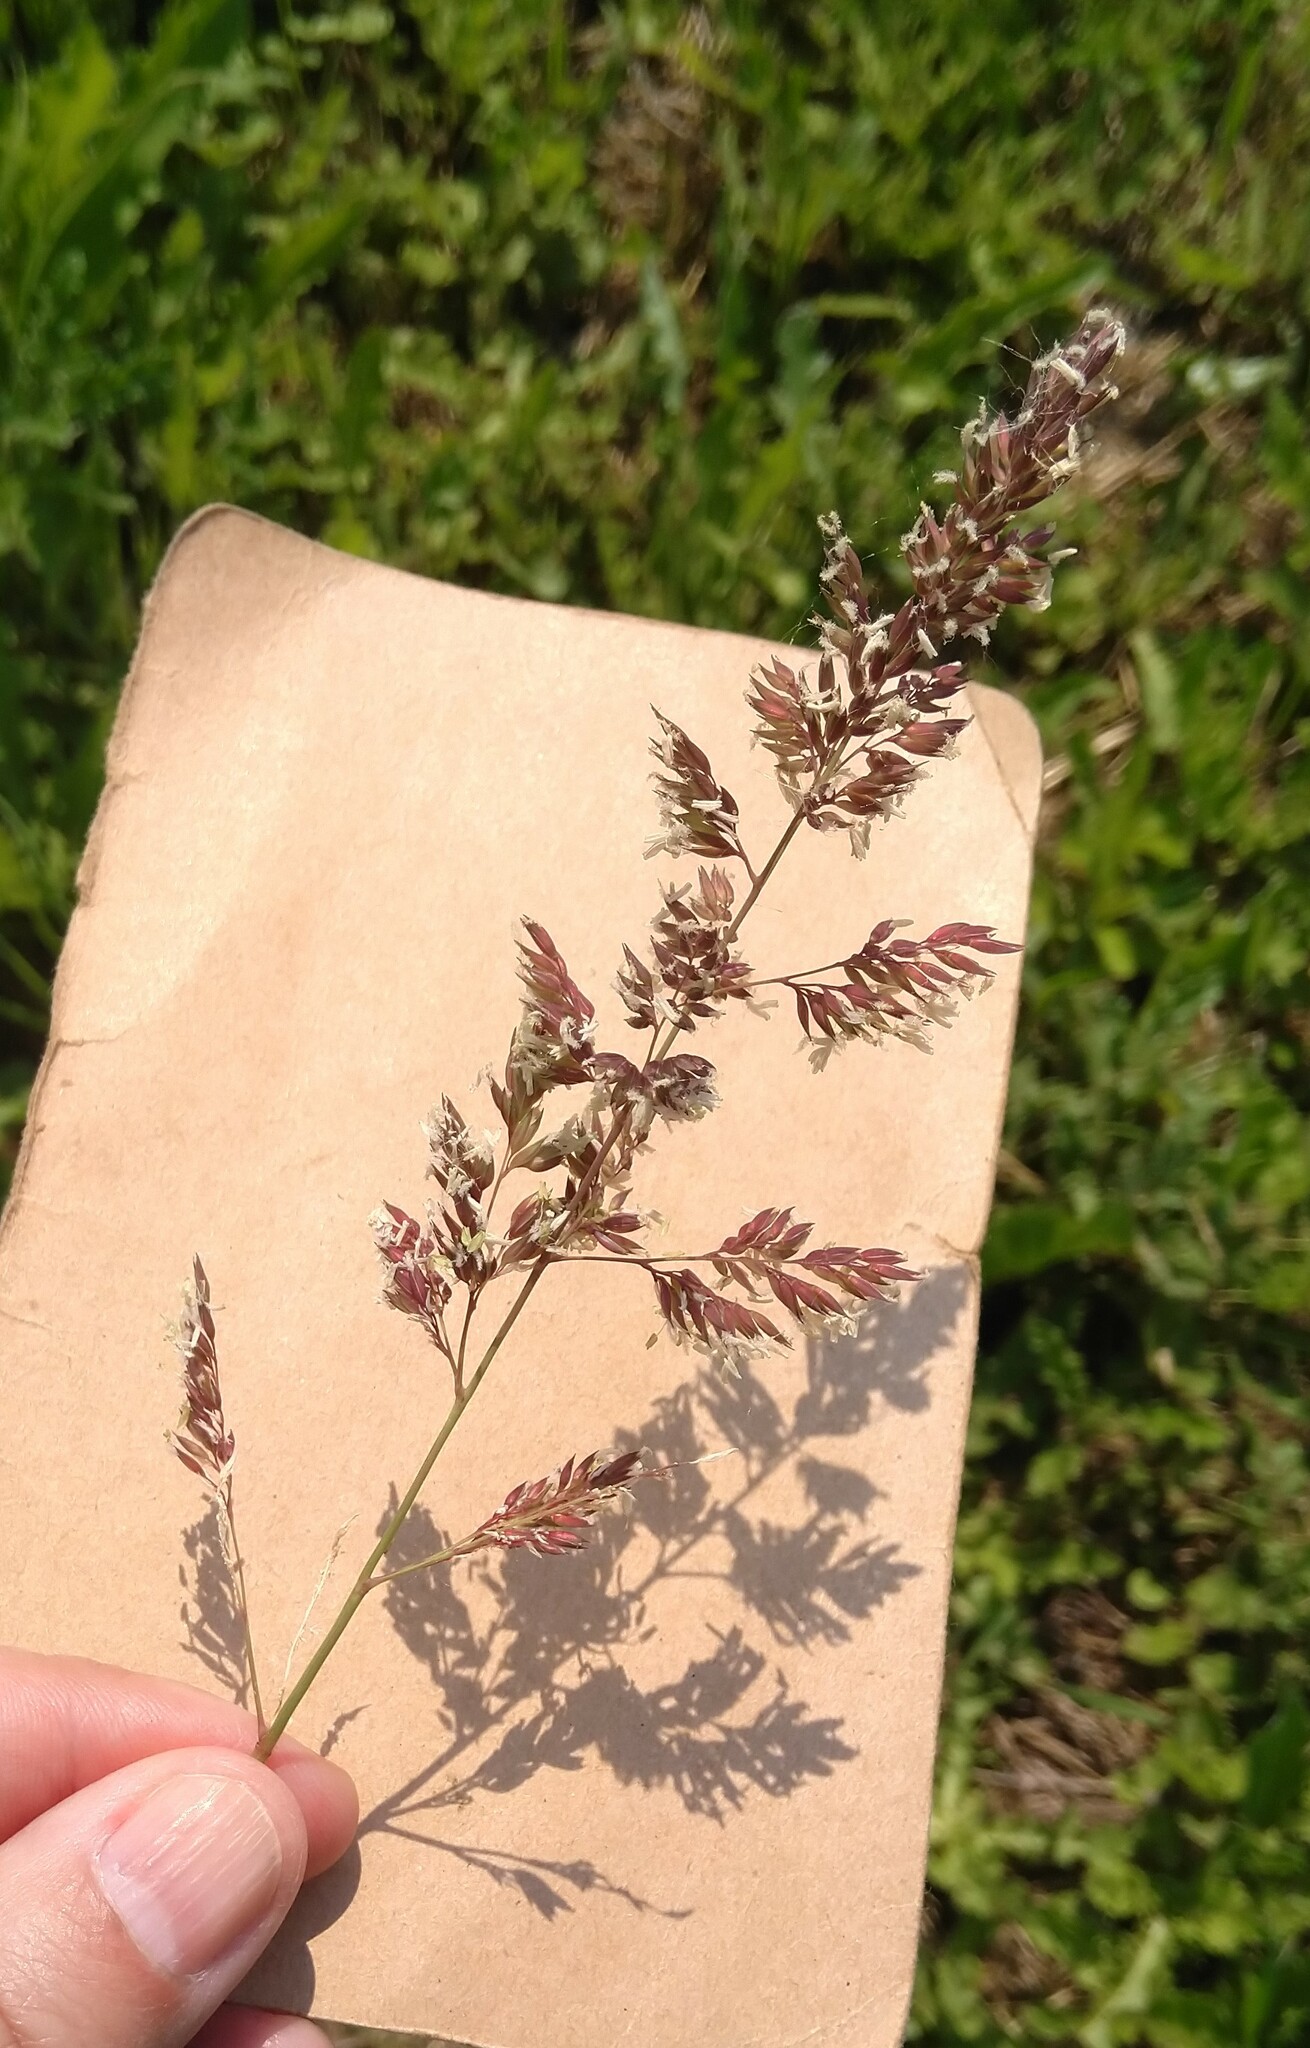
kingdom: Plantae
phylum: Tracheophyta
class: Liliopsida
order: Poales
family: Poaceae
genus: Phalaris
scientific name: Phalaris arundinacea
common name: Reed canary-grass
